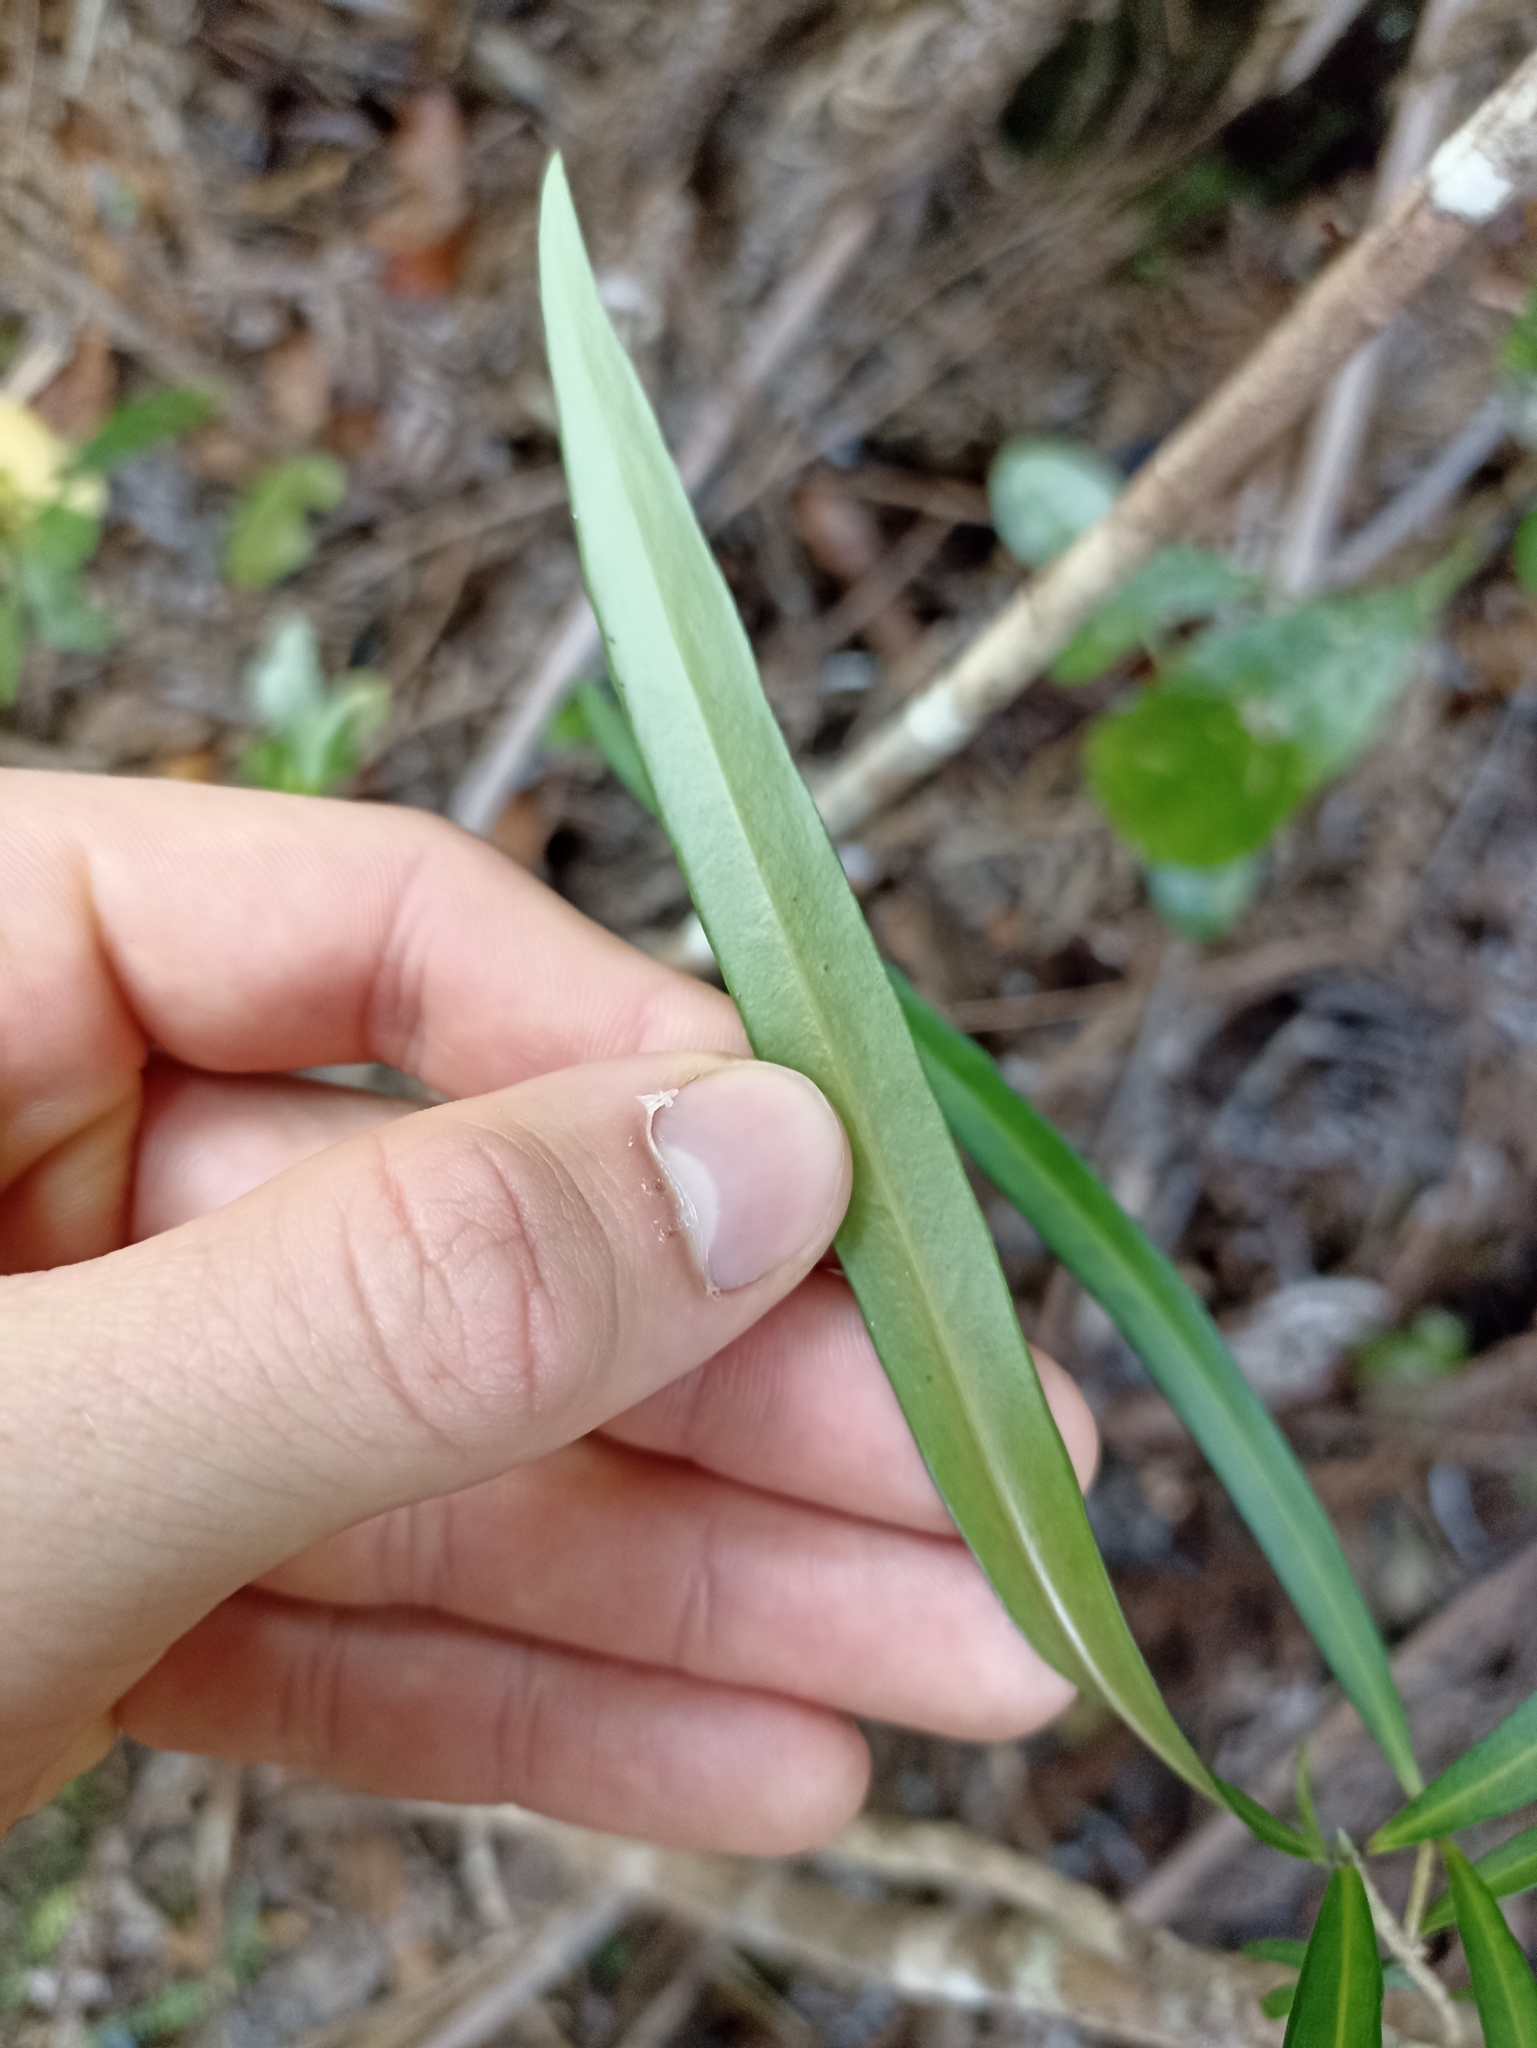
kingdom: Plantae
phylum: Tracheophyta
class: Magnoliopsida
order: Lamiales
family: Oleaceae
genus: Nestegis
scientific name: Nestegis lanceolata
